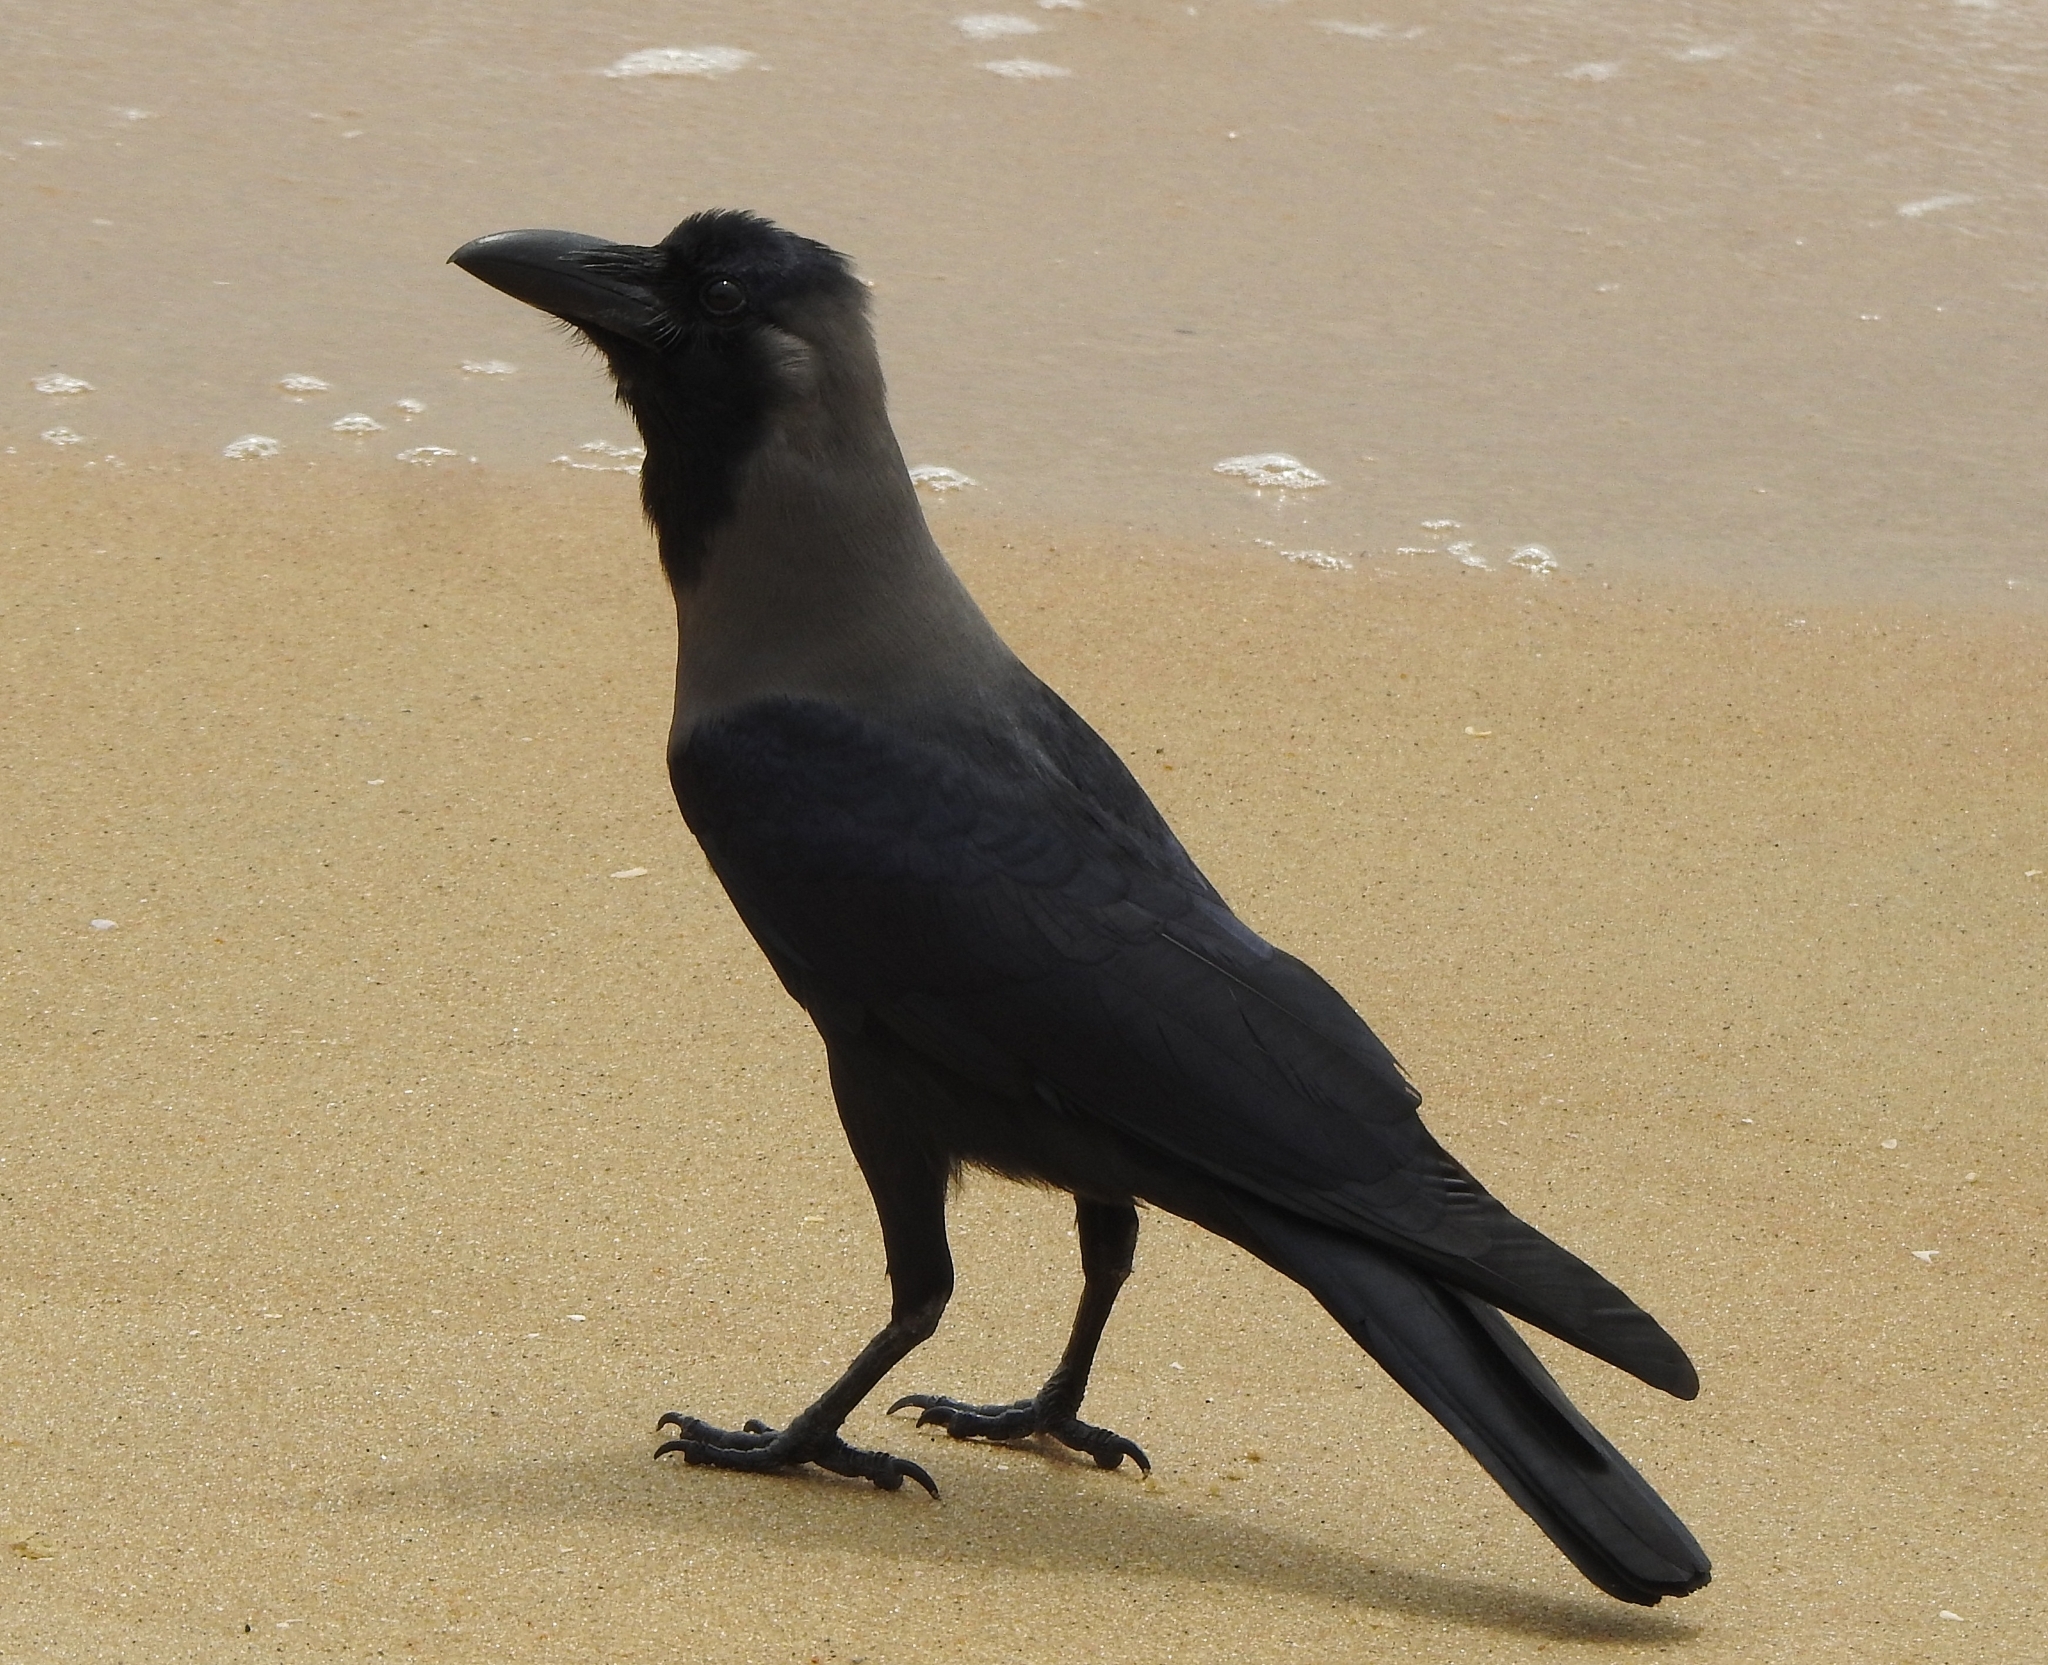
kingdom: Animalia
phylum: Chordata
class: Aves
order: Passeriformes
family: Corvidae
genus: Corvus
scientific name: Corvus splendens
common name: House crow
